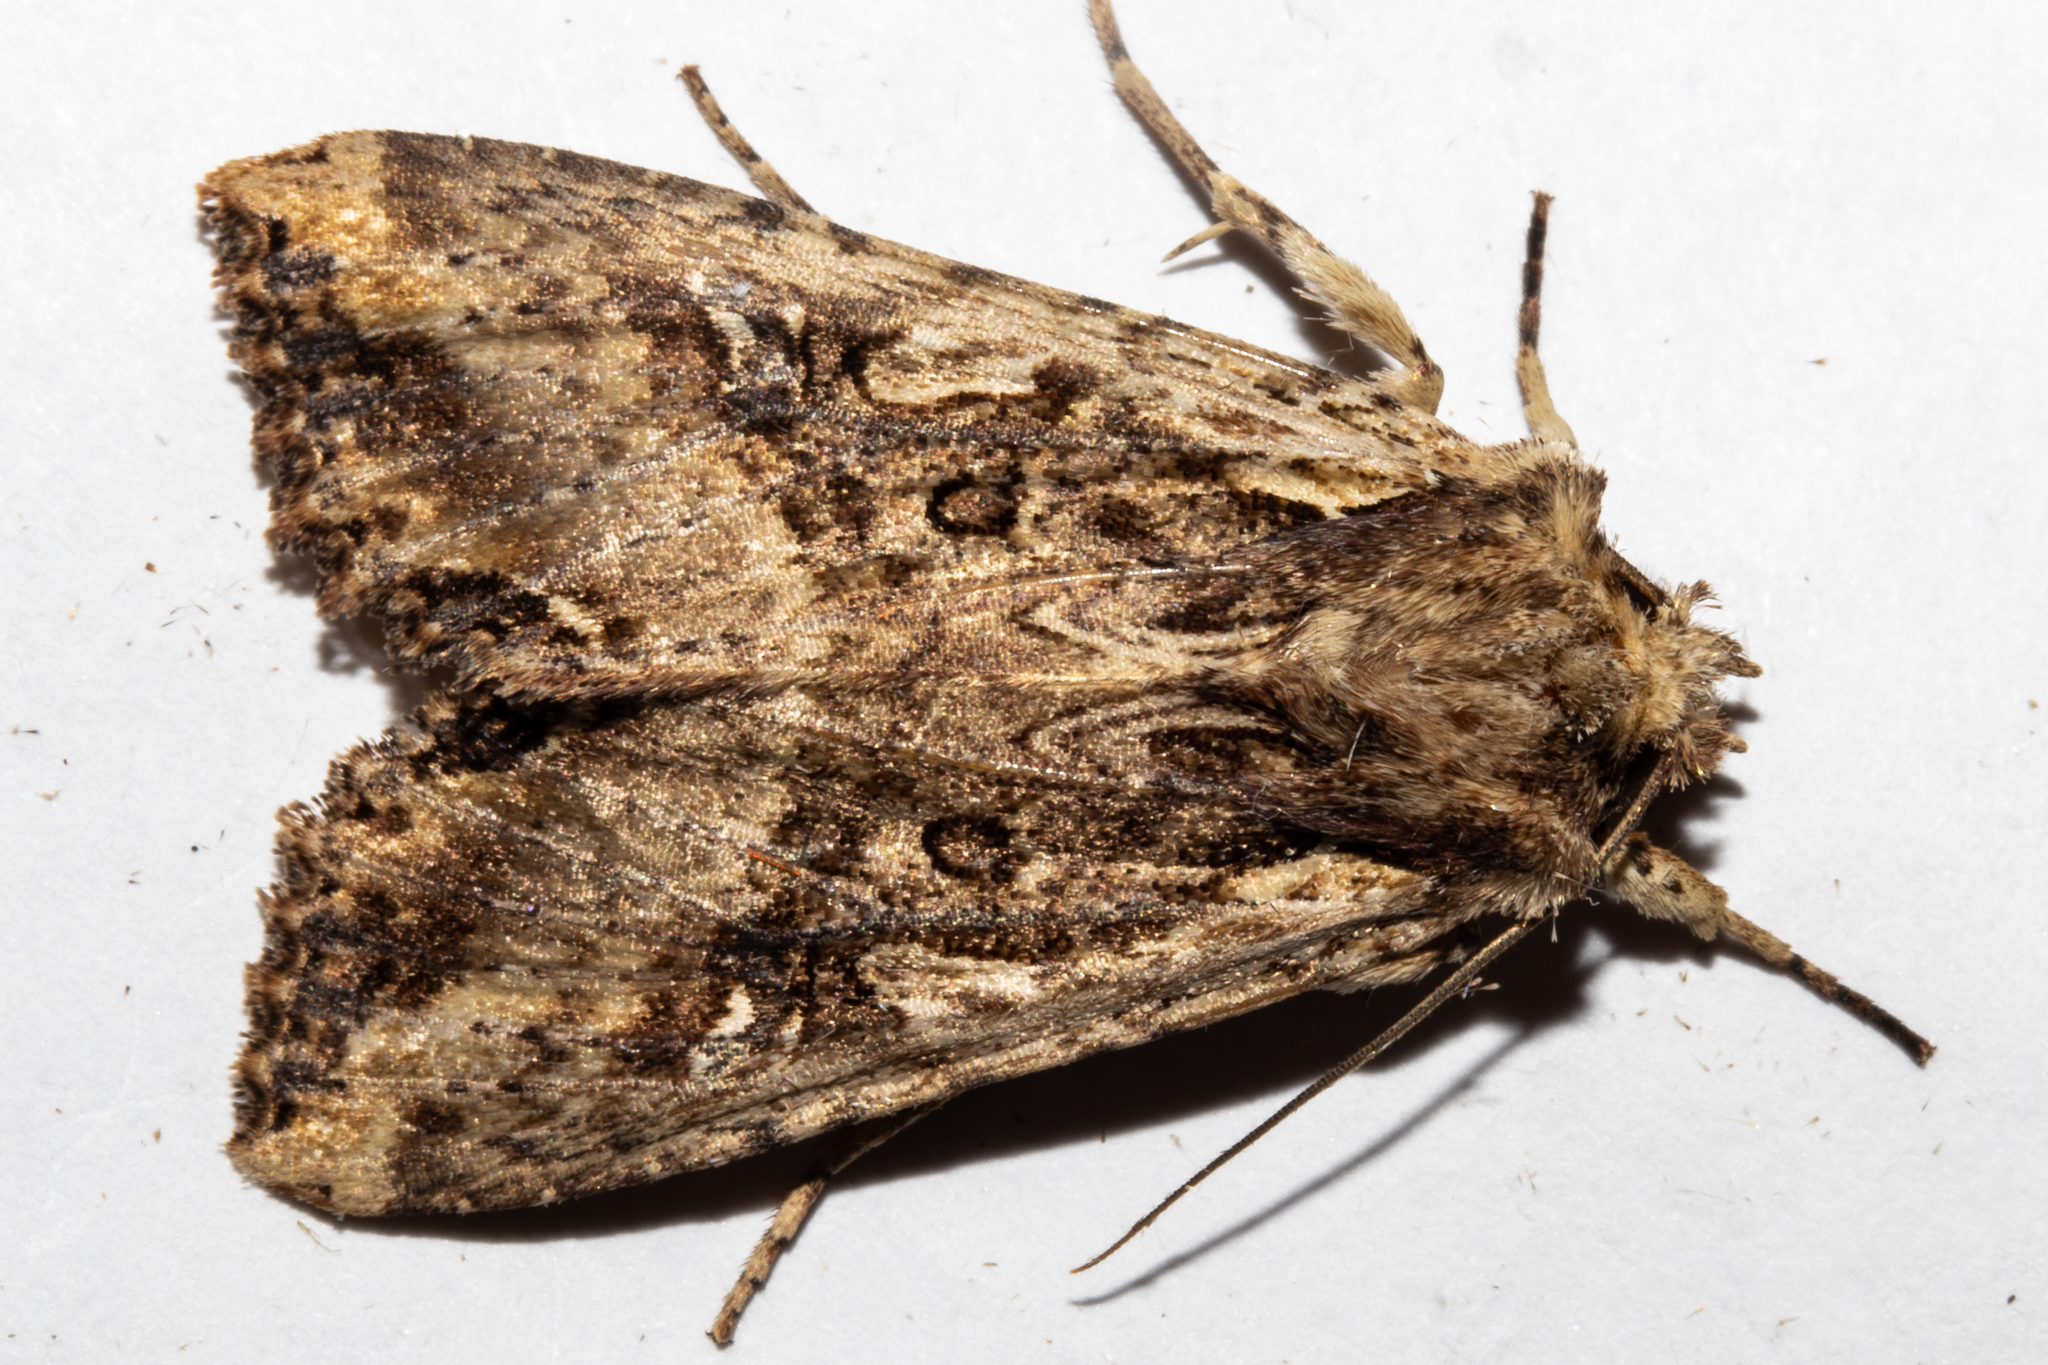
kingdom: Animalia
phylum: Arthropoda
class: Insecta
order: Lepidoptera
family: Noctuidae
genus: Meterana
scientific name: Meterana stipata
